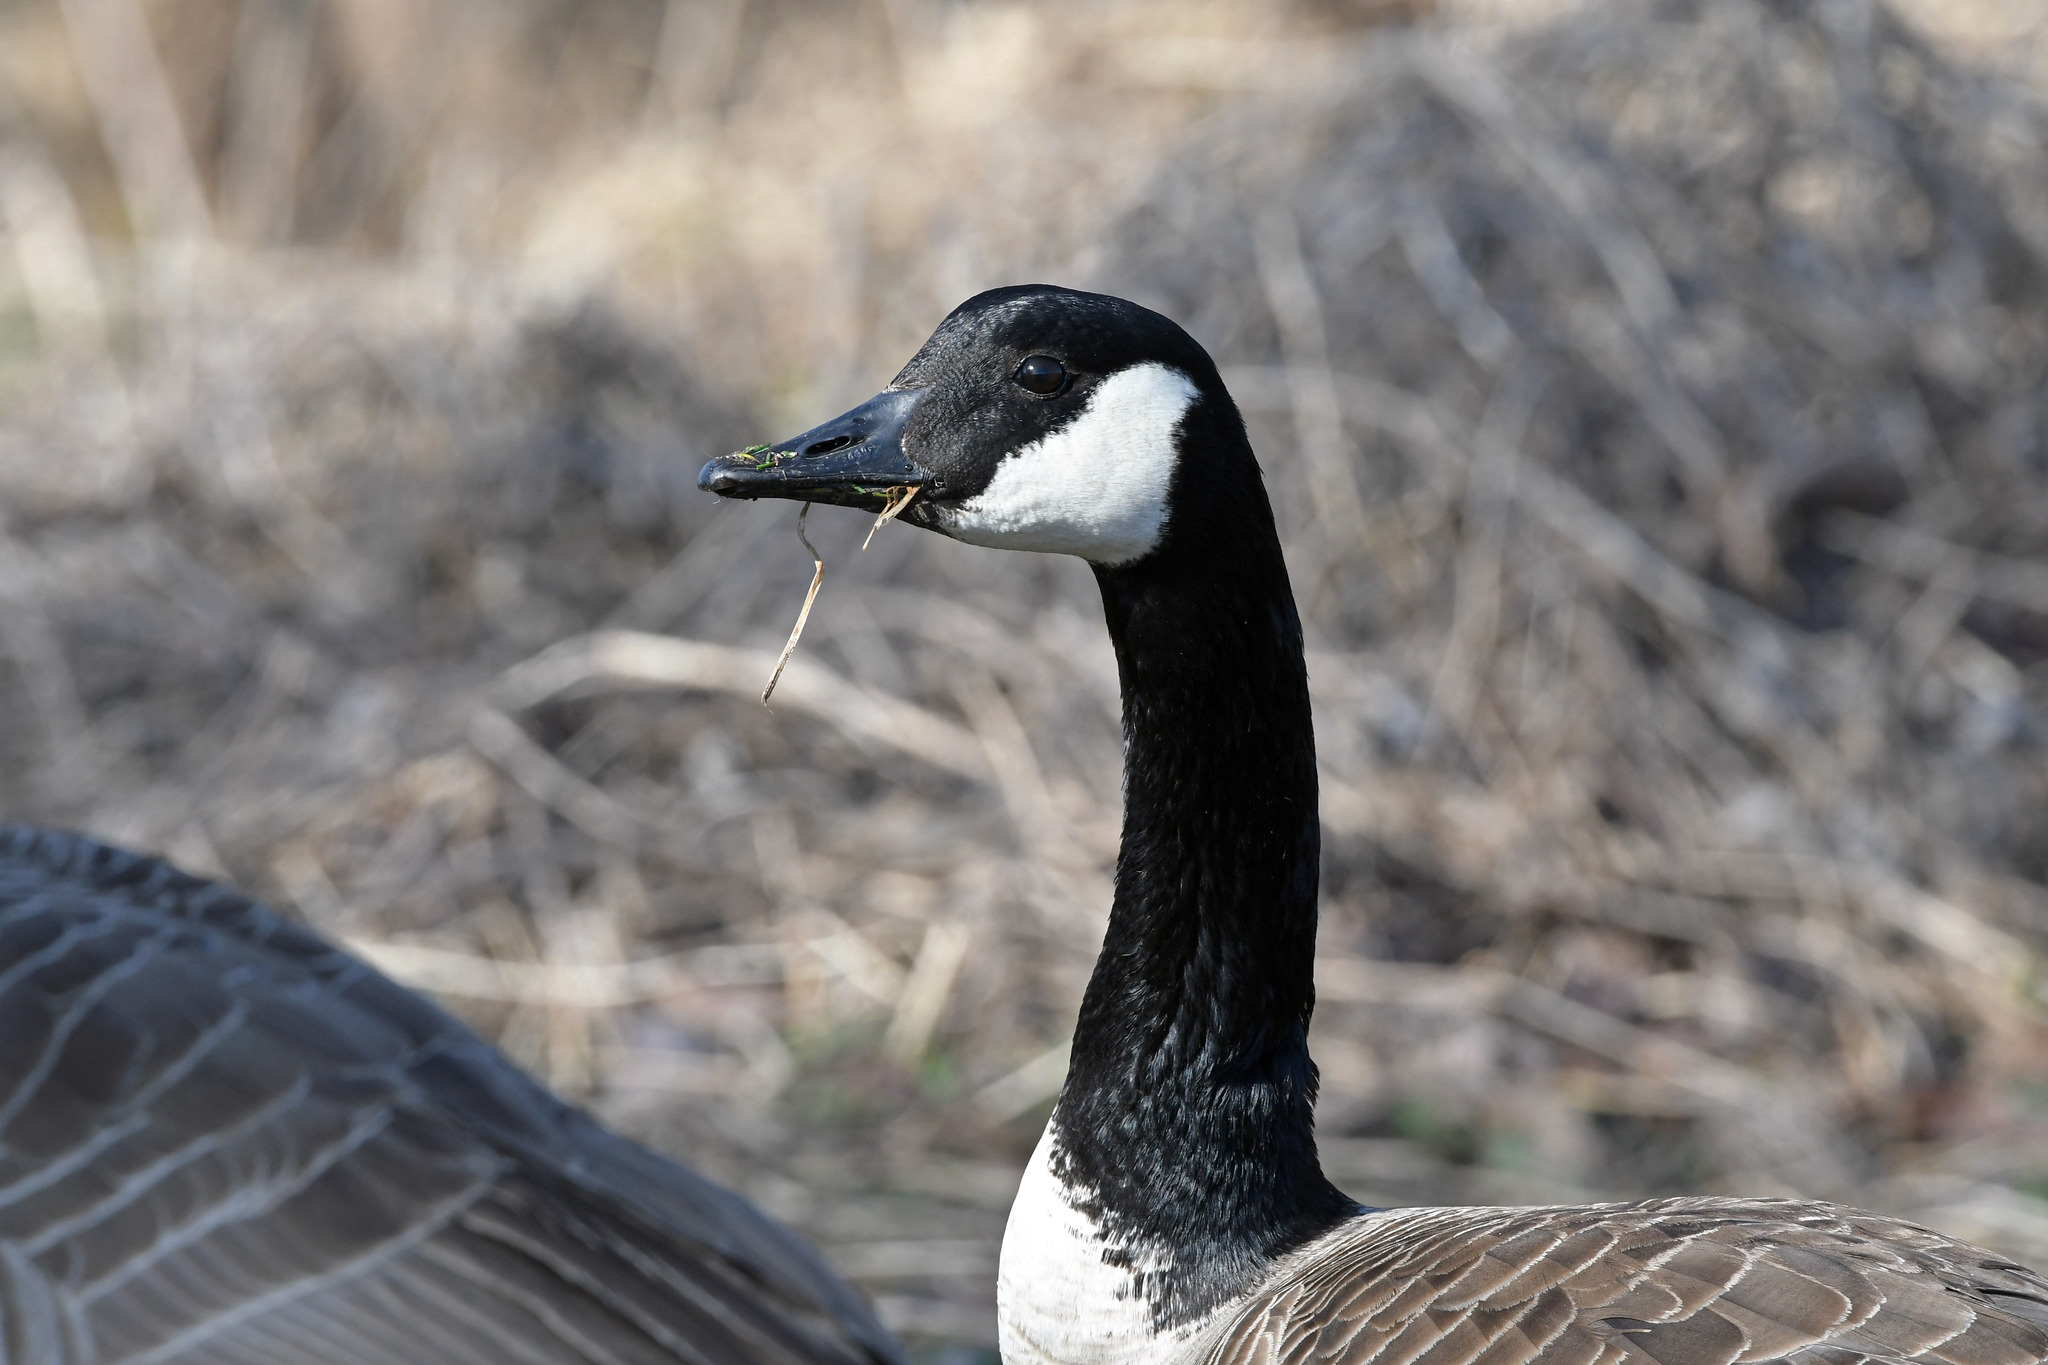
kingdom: Animalia
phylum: Chordata
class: Aves
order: Anseriformes
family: Anatidae
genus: Branta
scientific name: Branta canadensis
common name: Canada goose
